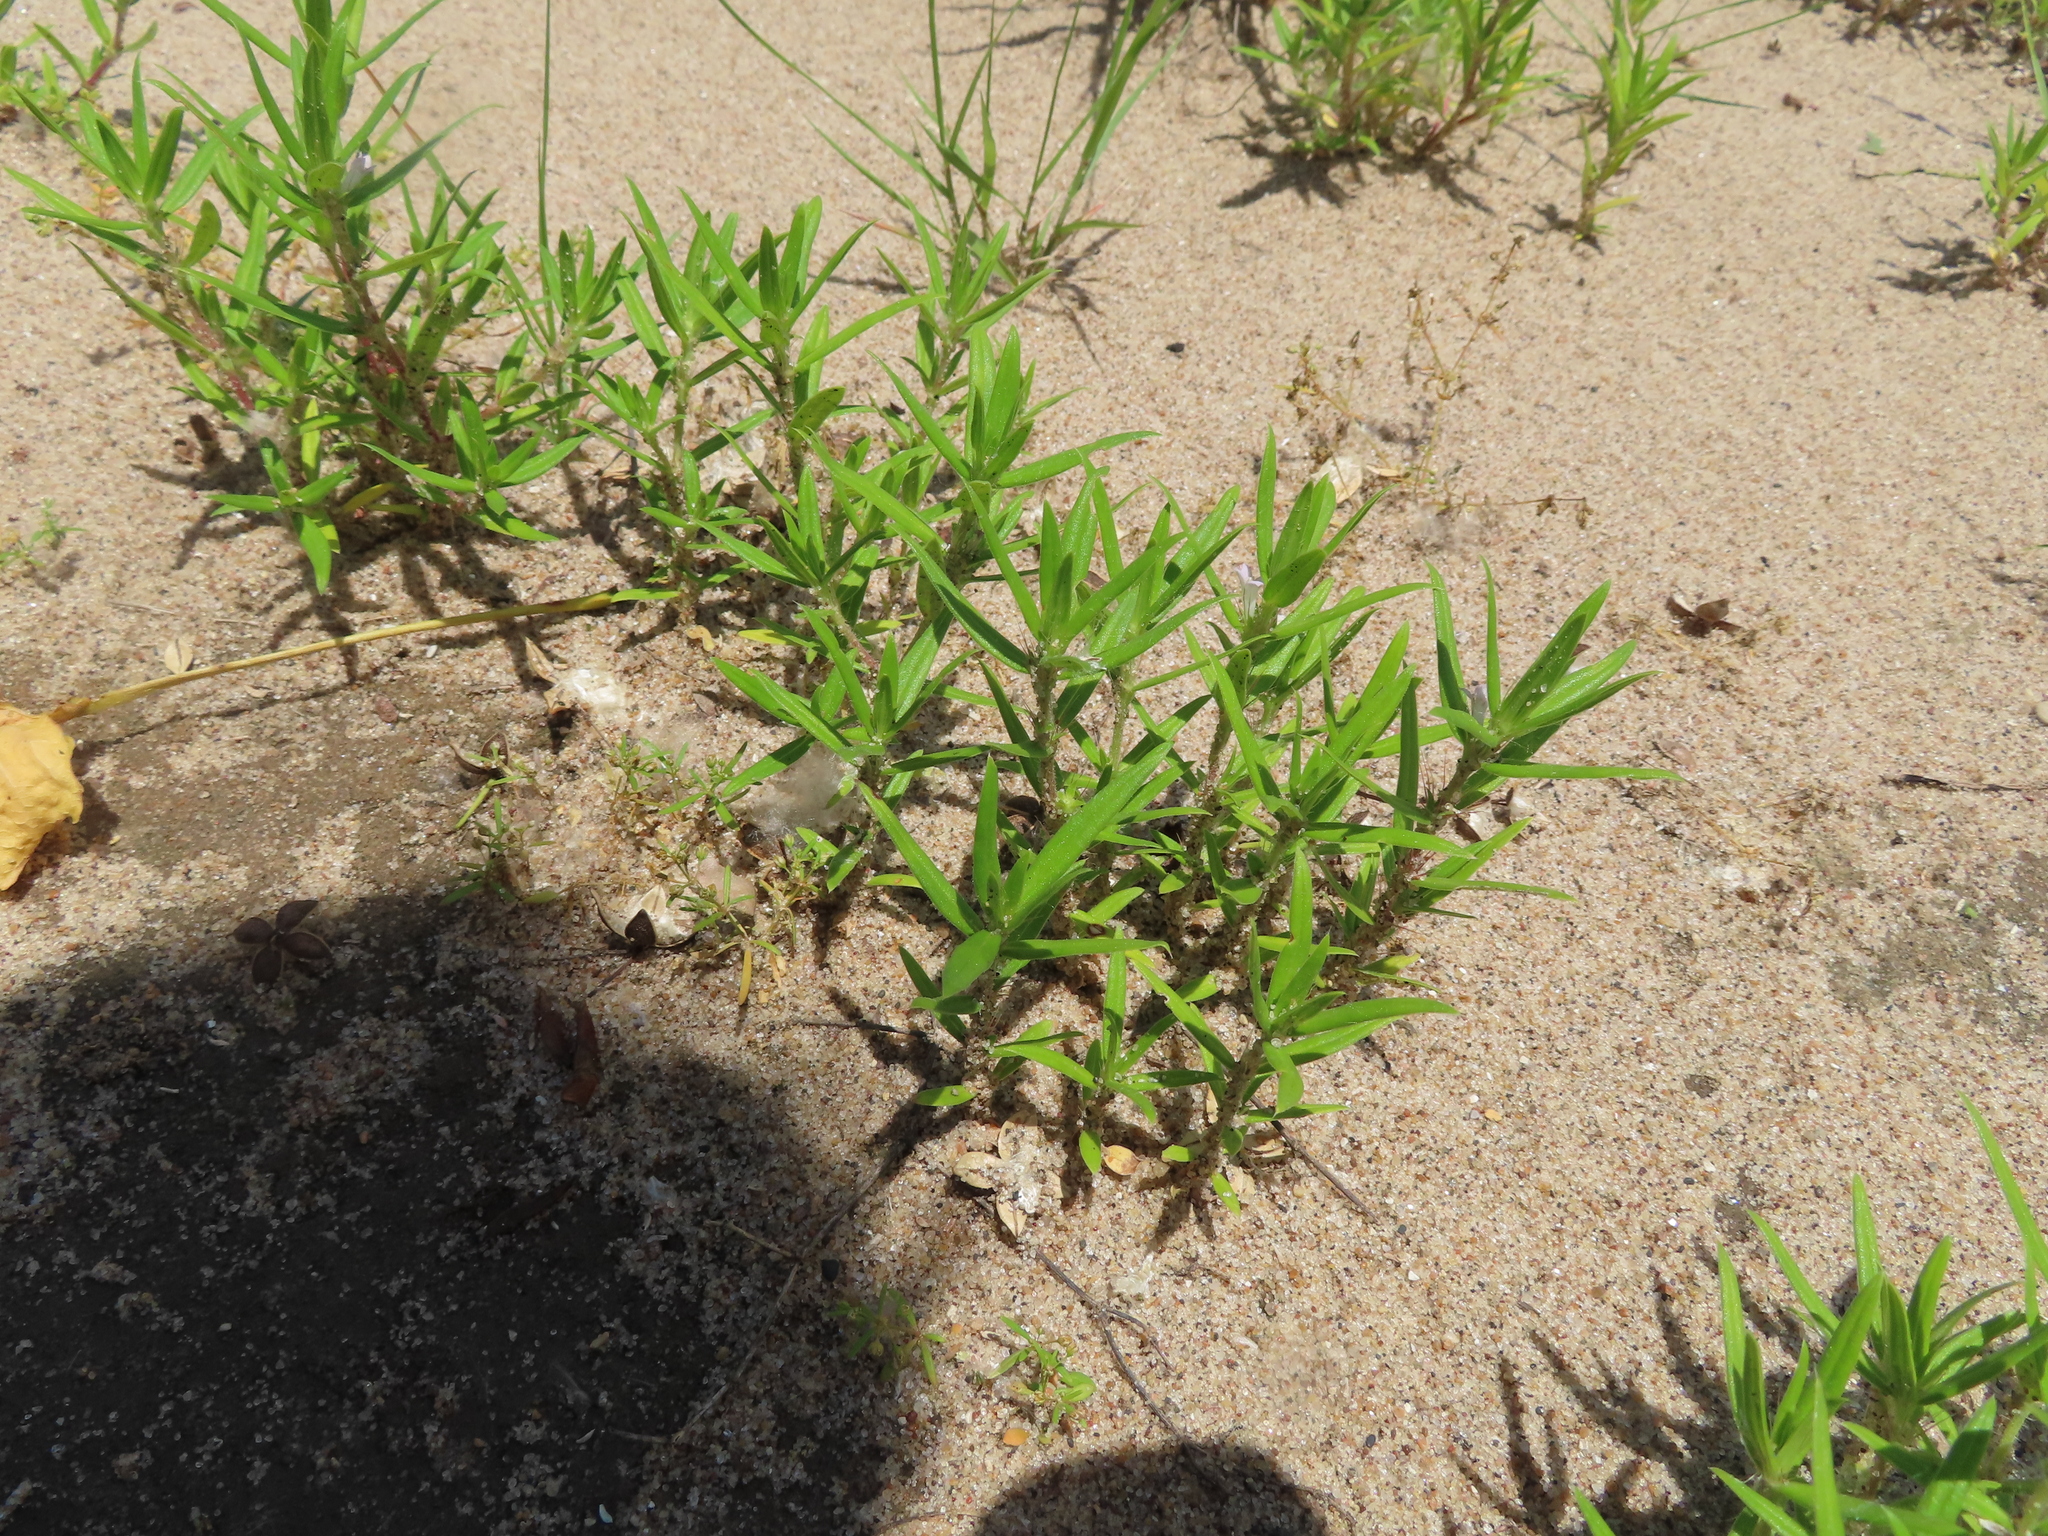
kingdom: Plantae
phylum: Tracheophyta
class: Magnoliopsida
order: Gentianales
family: Rubiaceae
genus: Hexasepalum
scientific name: Hexasepalum teres
